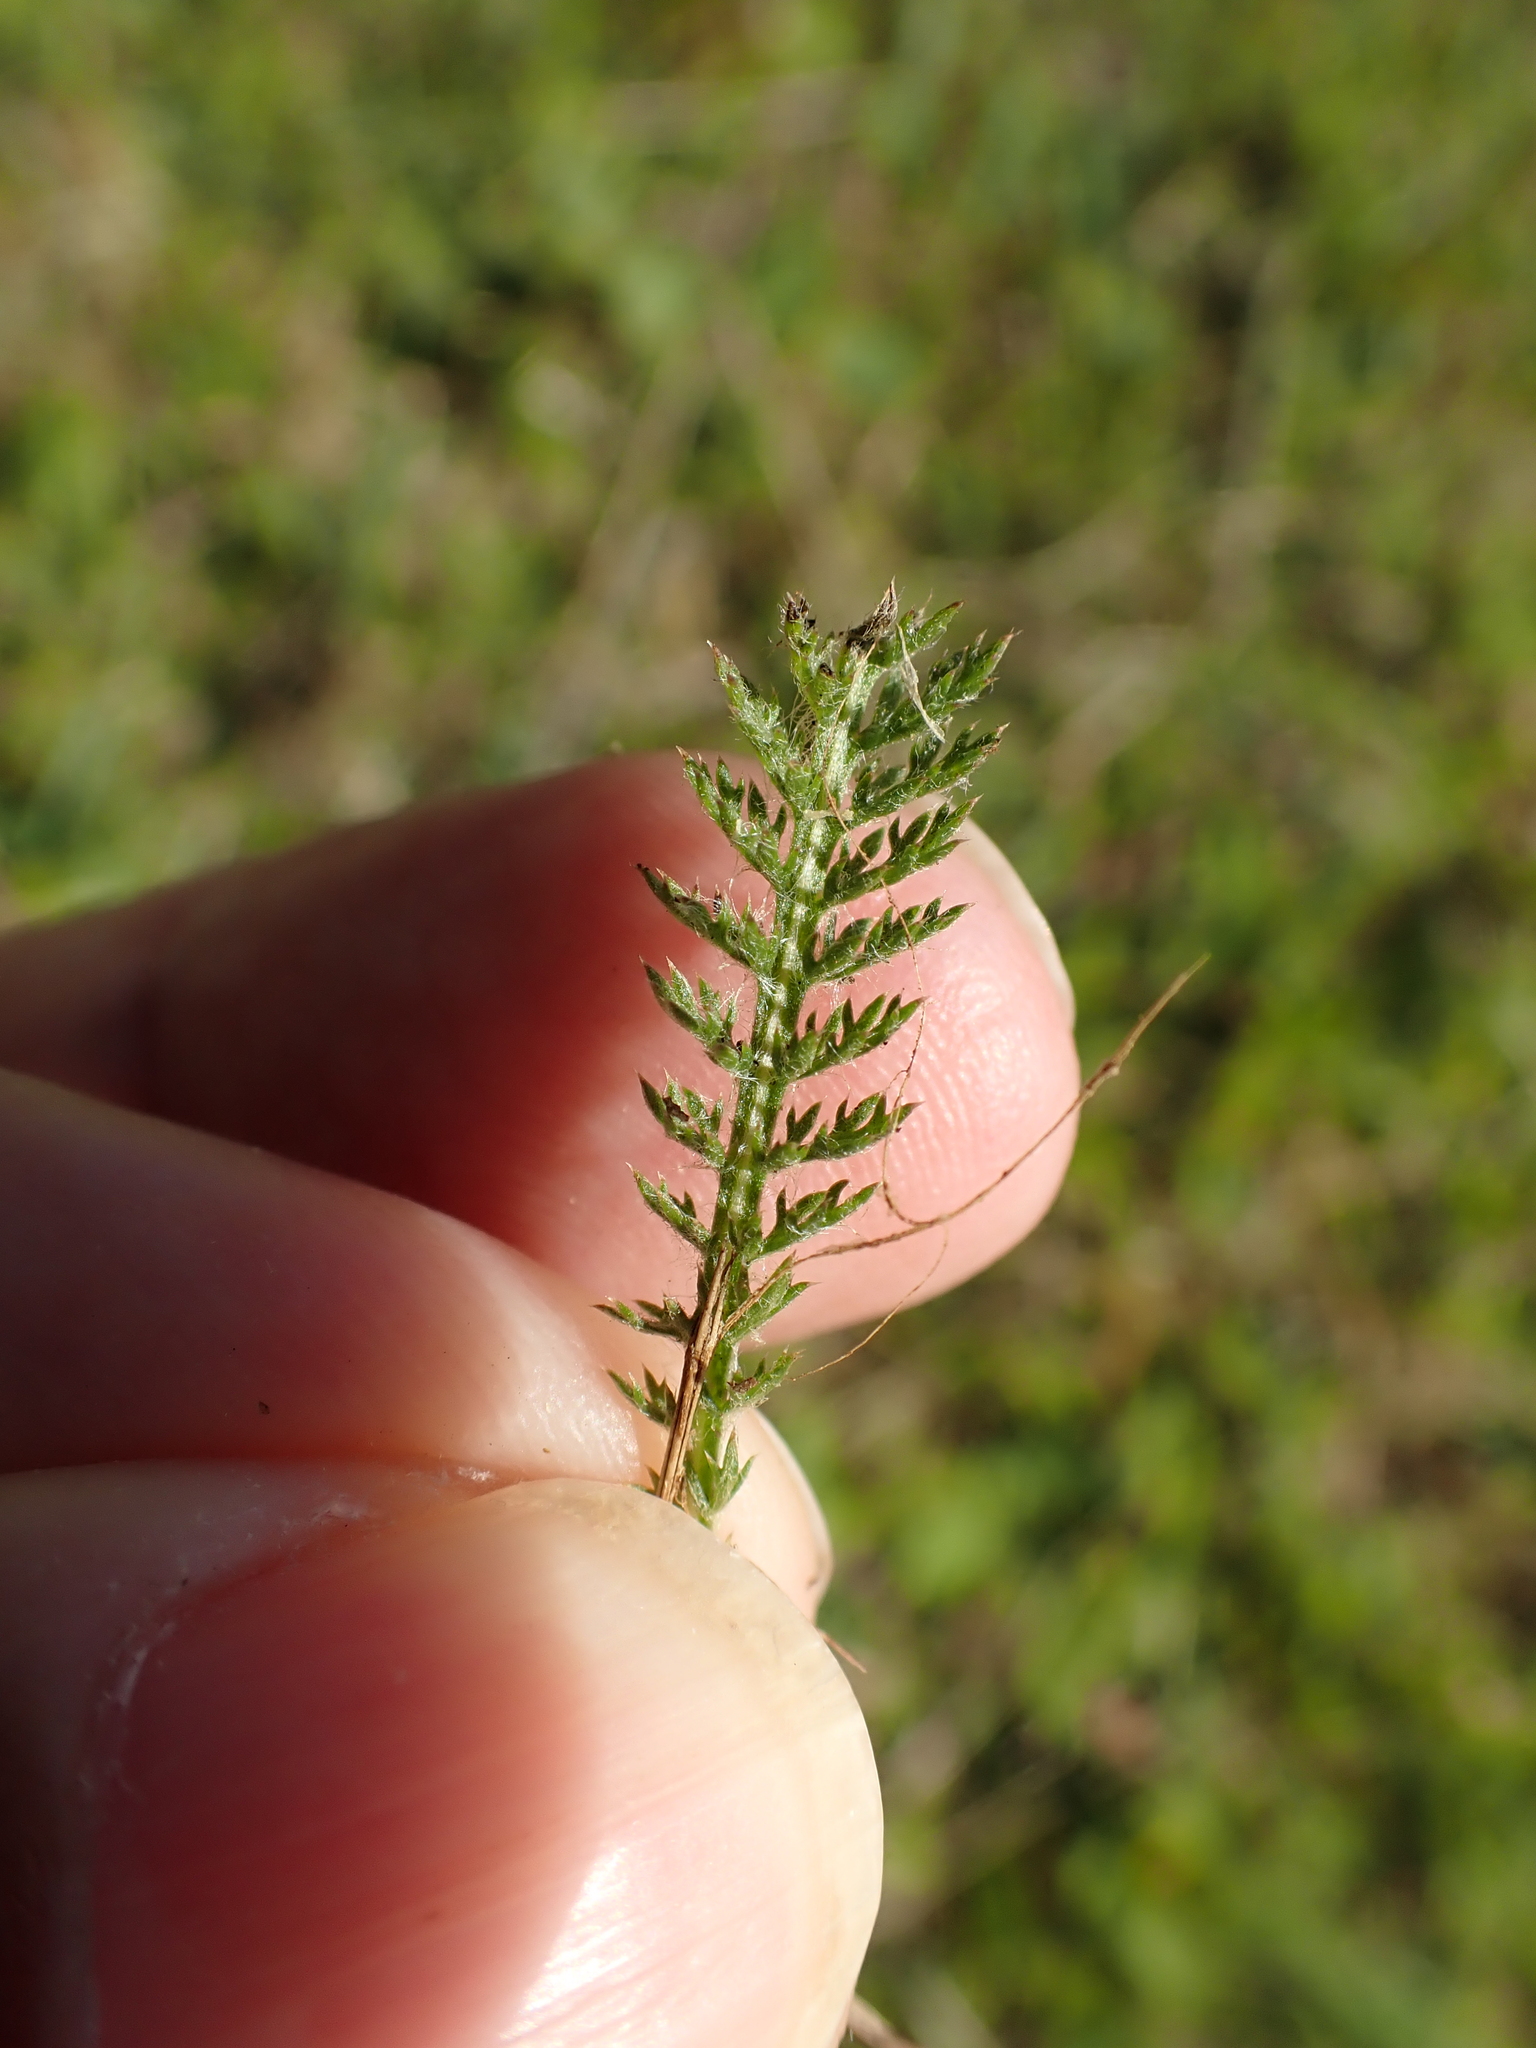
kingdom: Plantae
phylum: Tracheophyta
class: Magnoliopsida
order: Asterales
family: Asteraceae
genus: Achillea
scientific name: Achillea millefolium
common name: Yarrow
